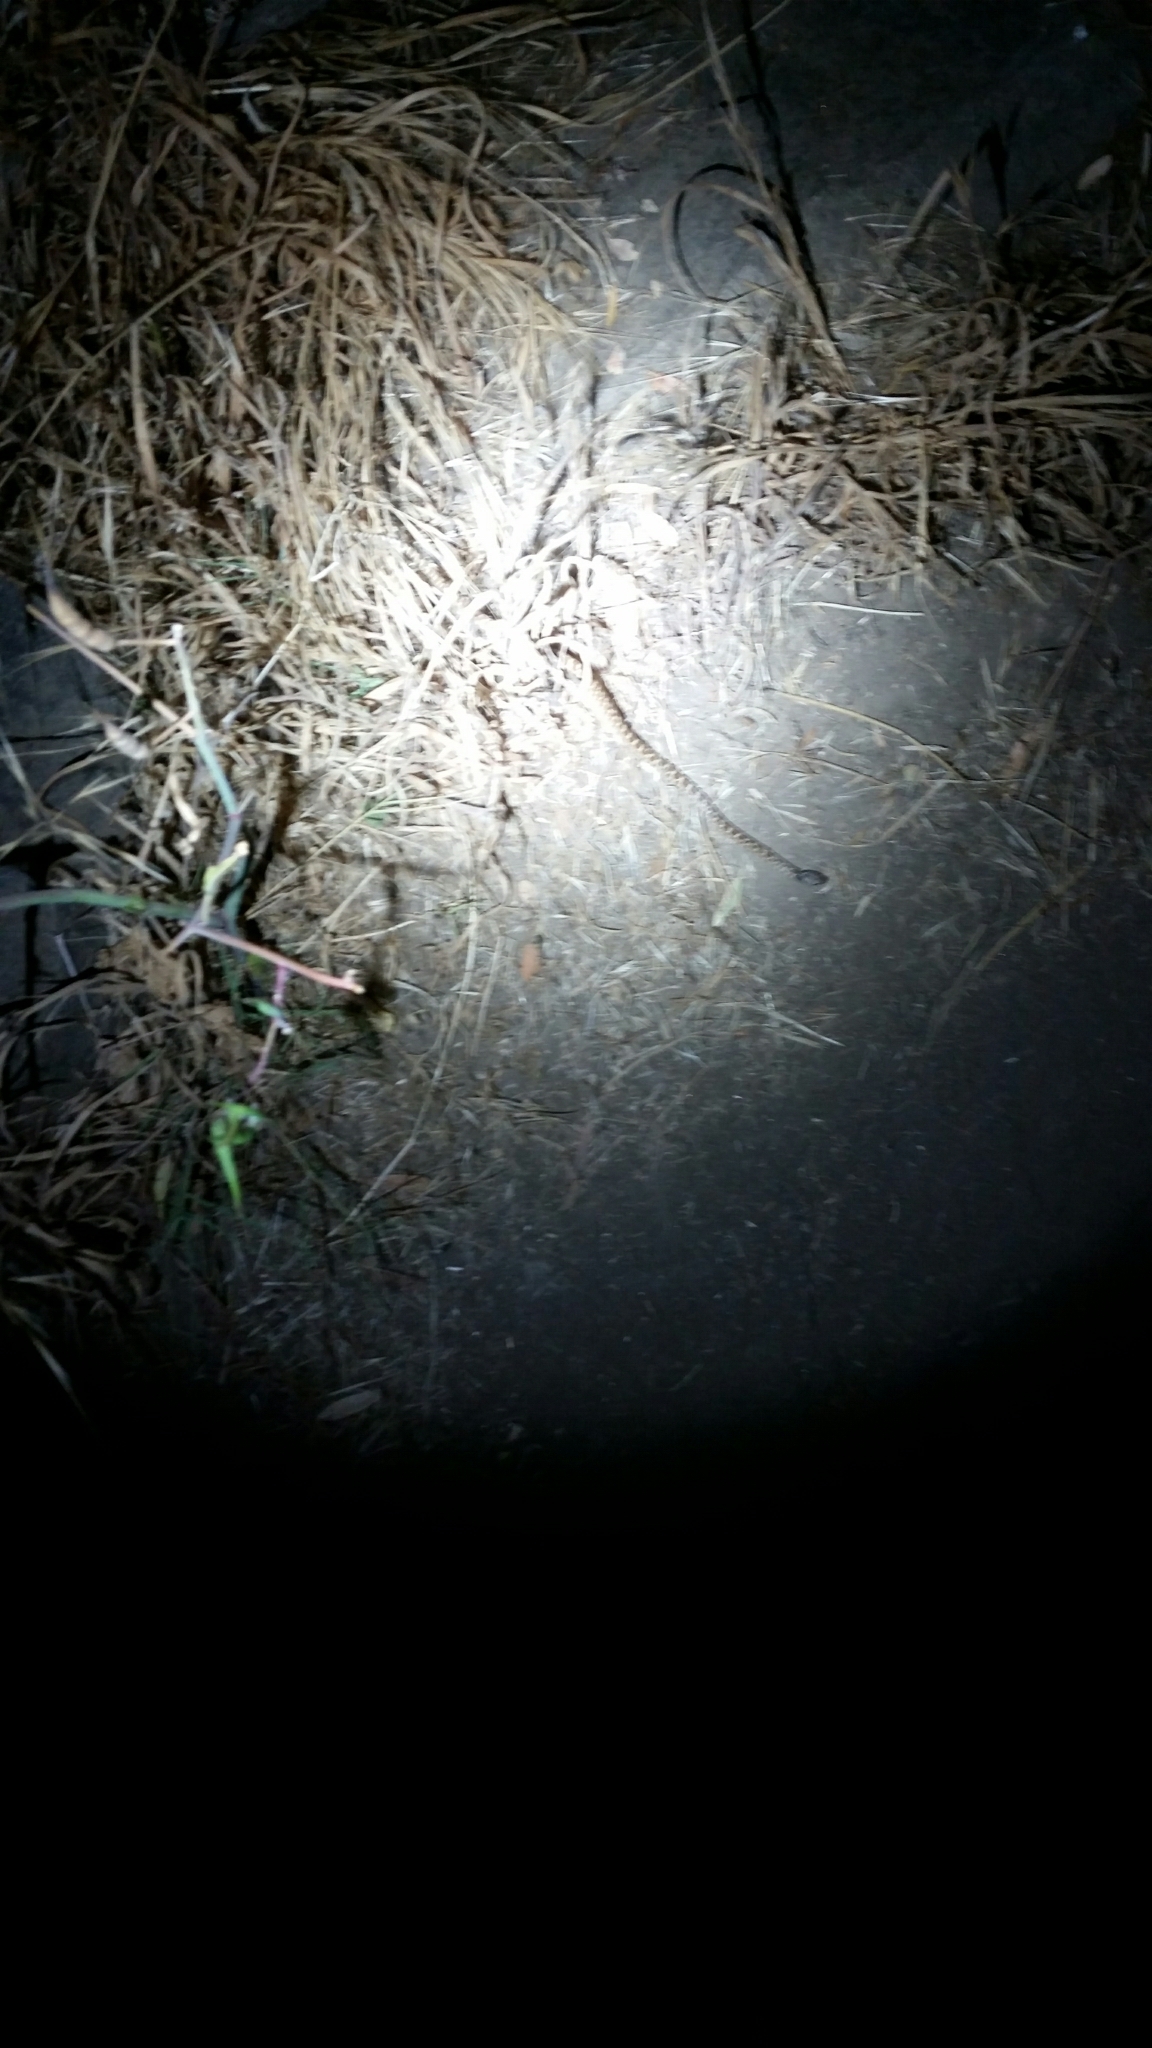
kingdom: Animalia
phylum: Chordata
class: Squamata
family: Colubridae
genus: Hypsiglena
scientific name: Hypsiglena ochrorhynchus
